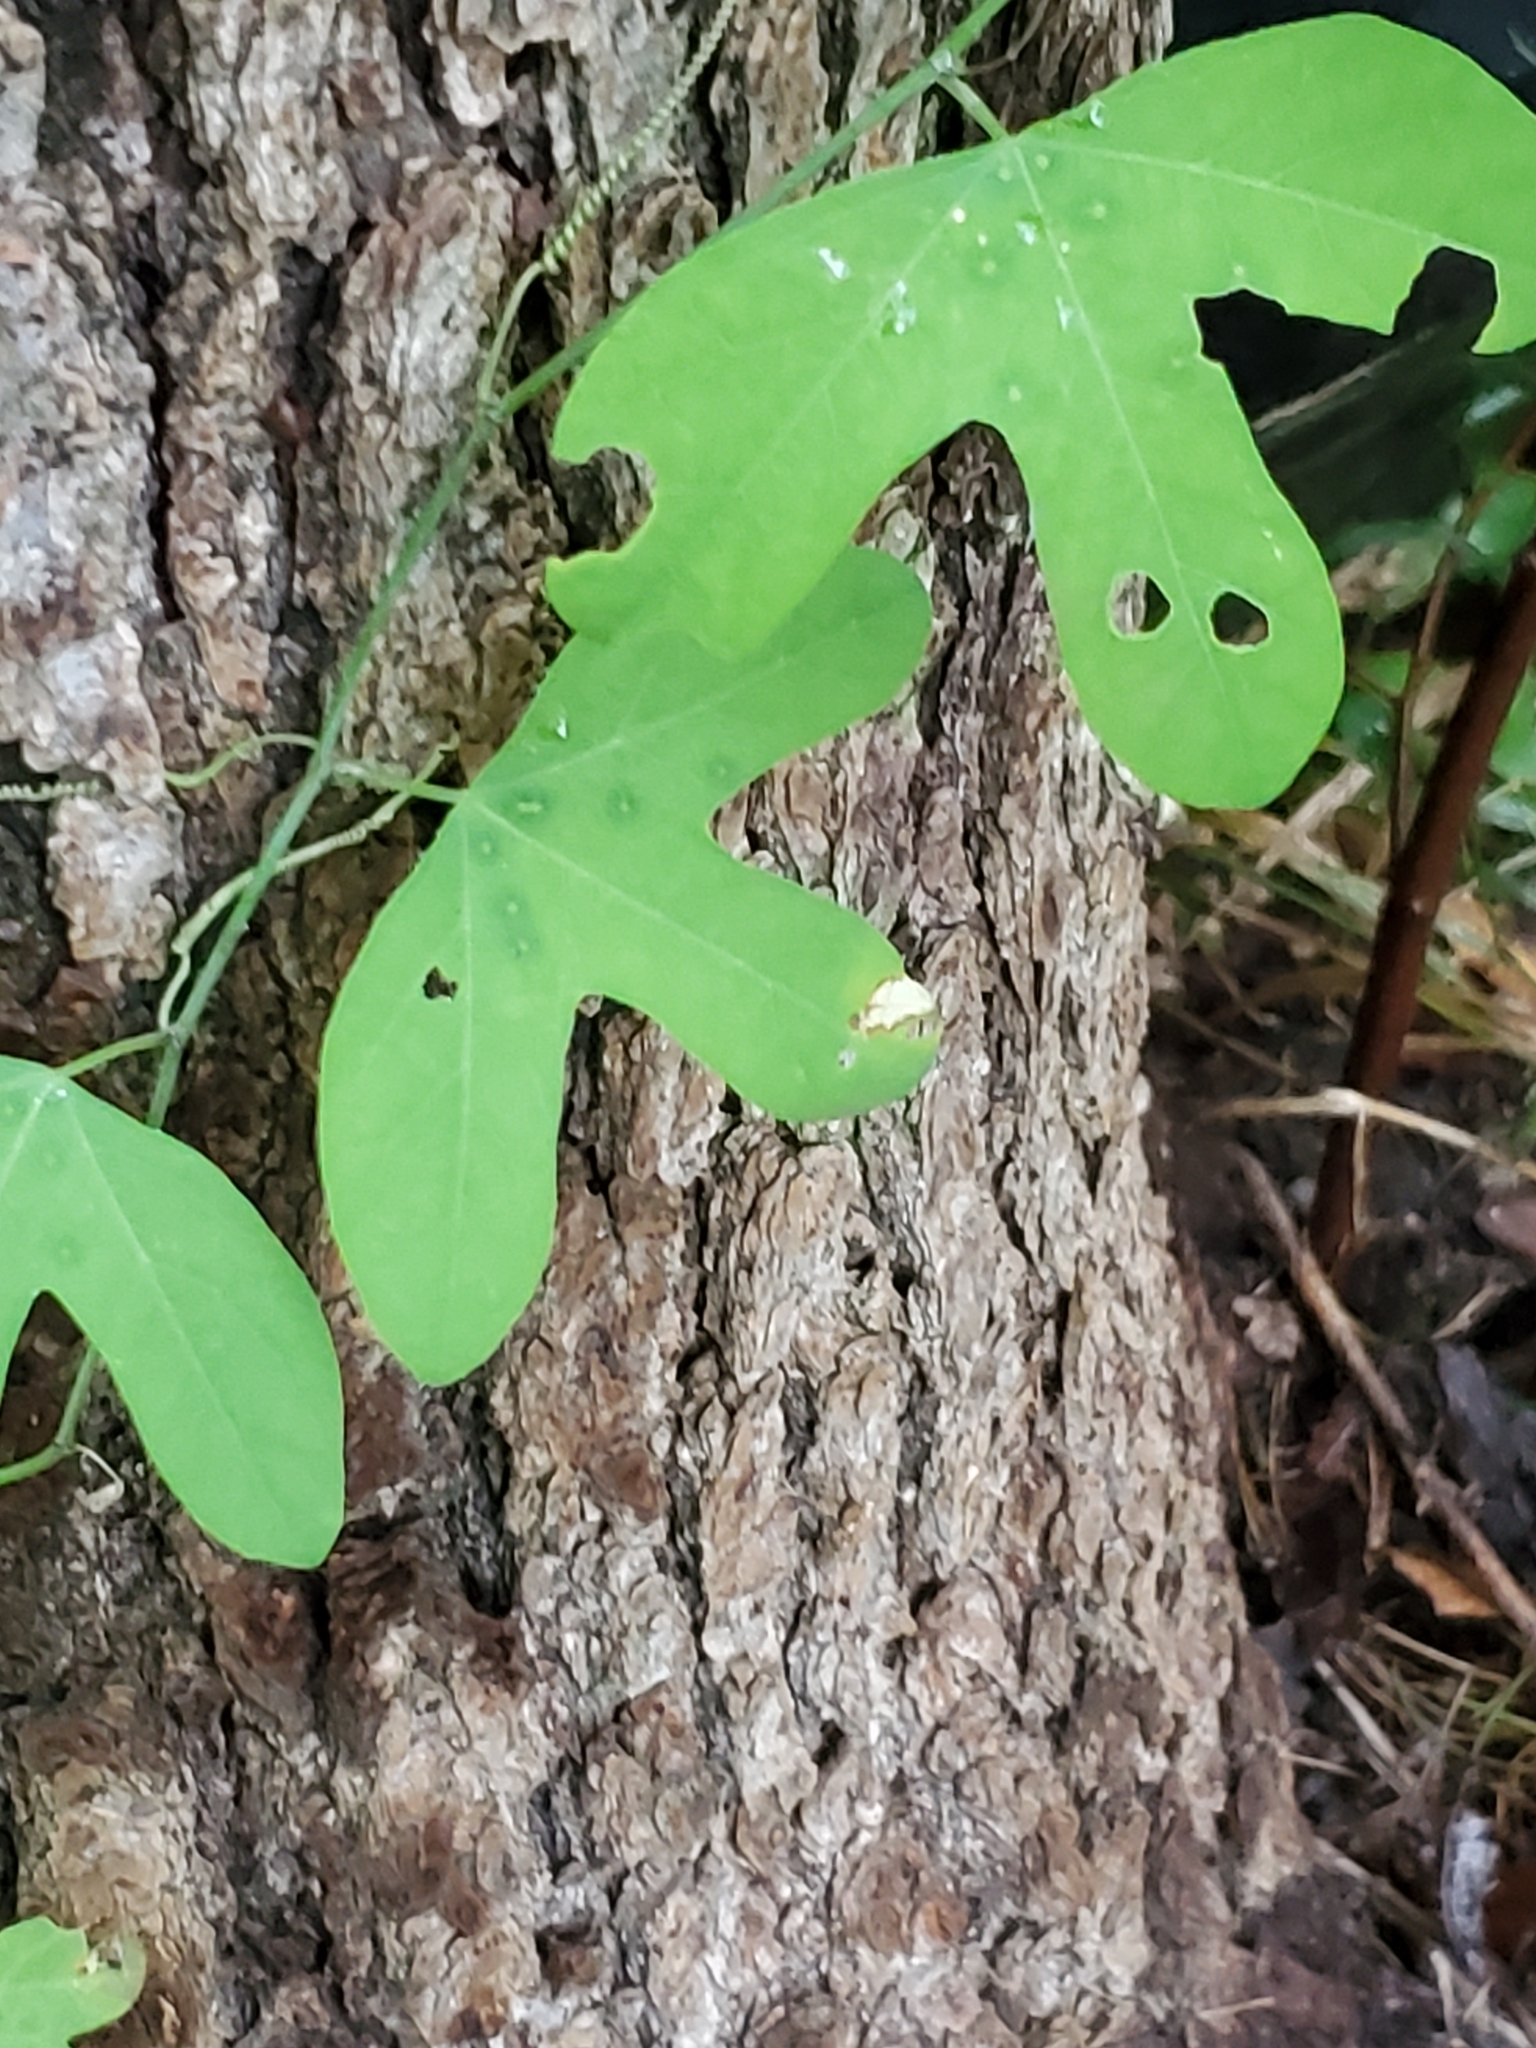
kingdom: Plantae
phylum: Tracheophyta
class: Magnoliopsida
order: Malpighiales
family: Passifloraceae
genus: Passiflora
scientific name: Passiflora affinis
